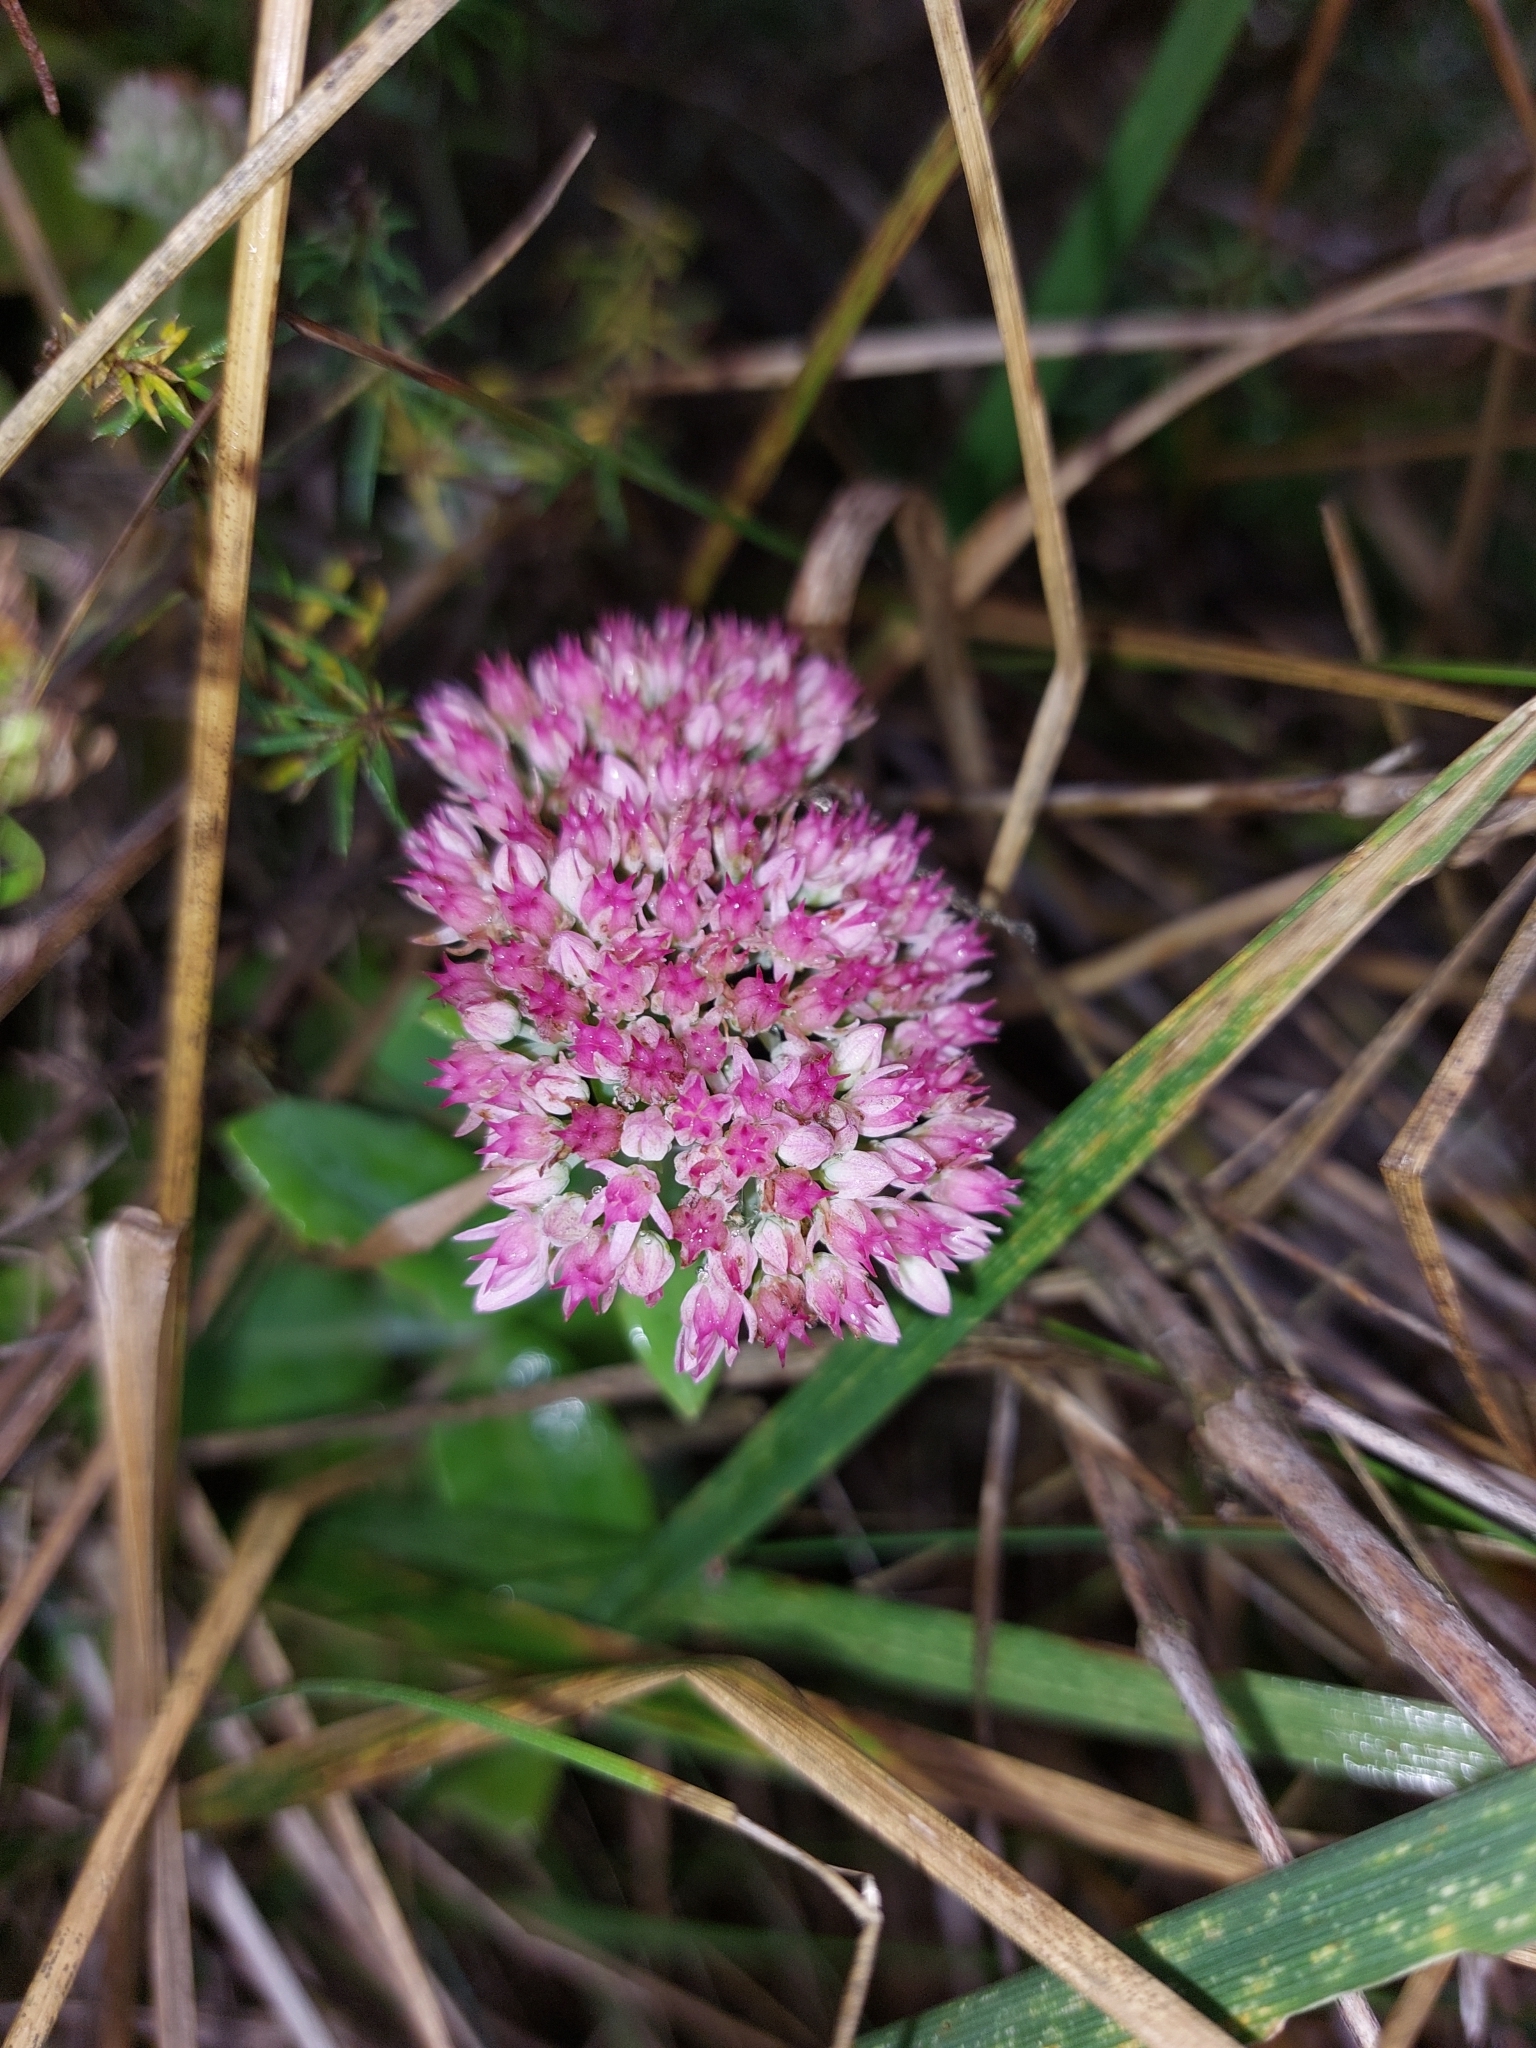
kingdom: Plantae
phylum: Tracheophyta
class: Magnoliopsida
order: Saxifragales
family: Crassulaceae
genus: Hylotelephium
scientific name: Hylotelephium
